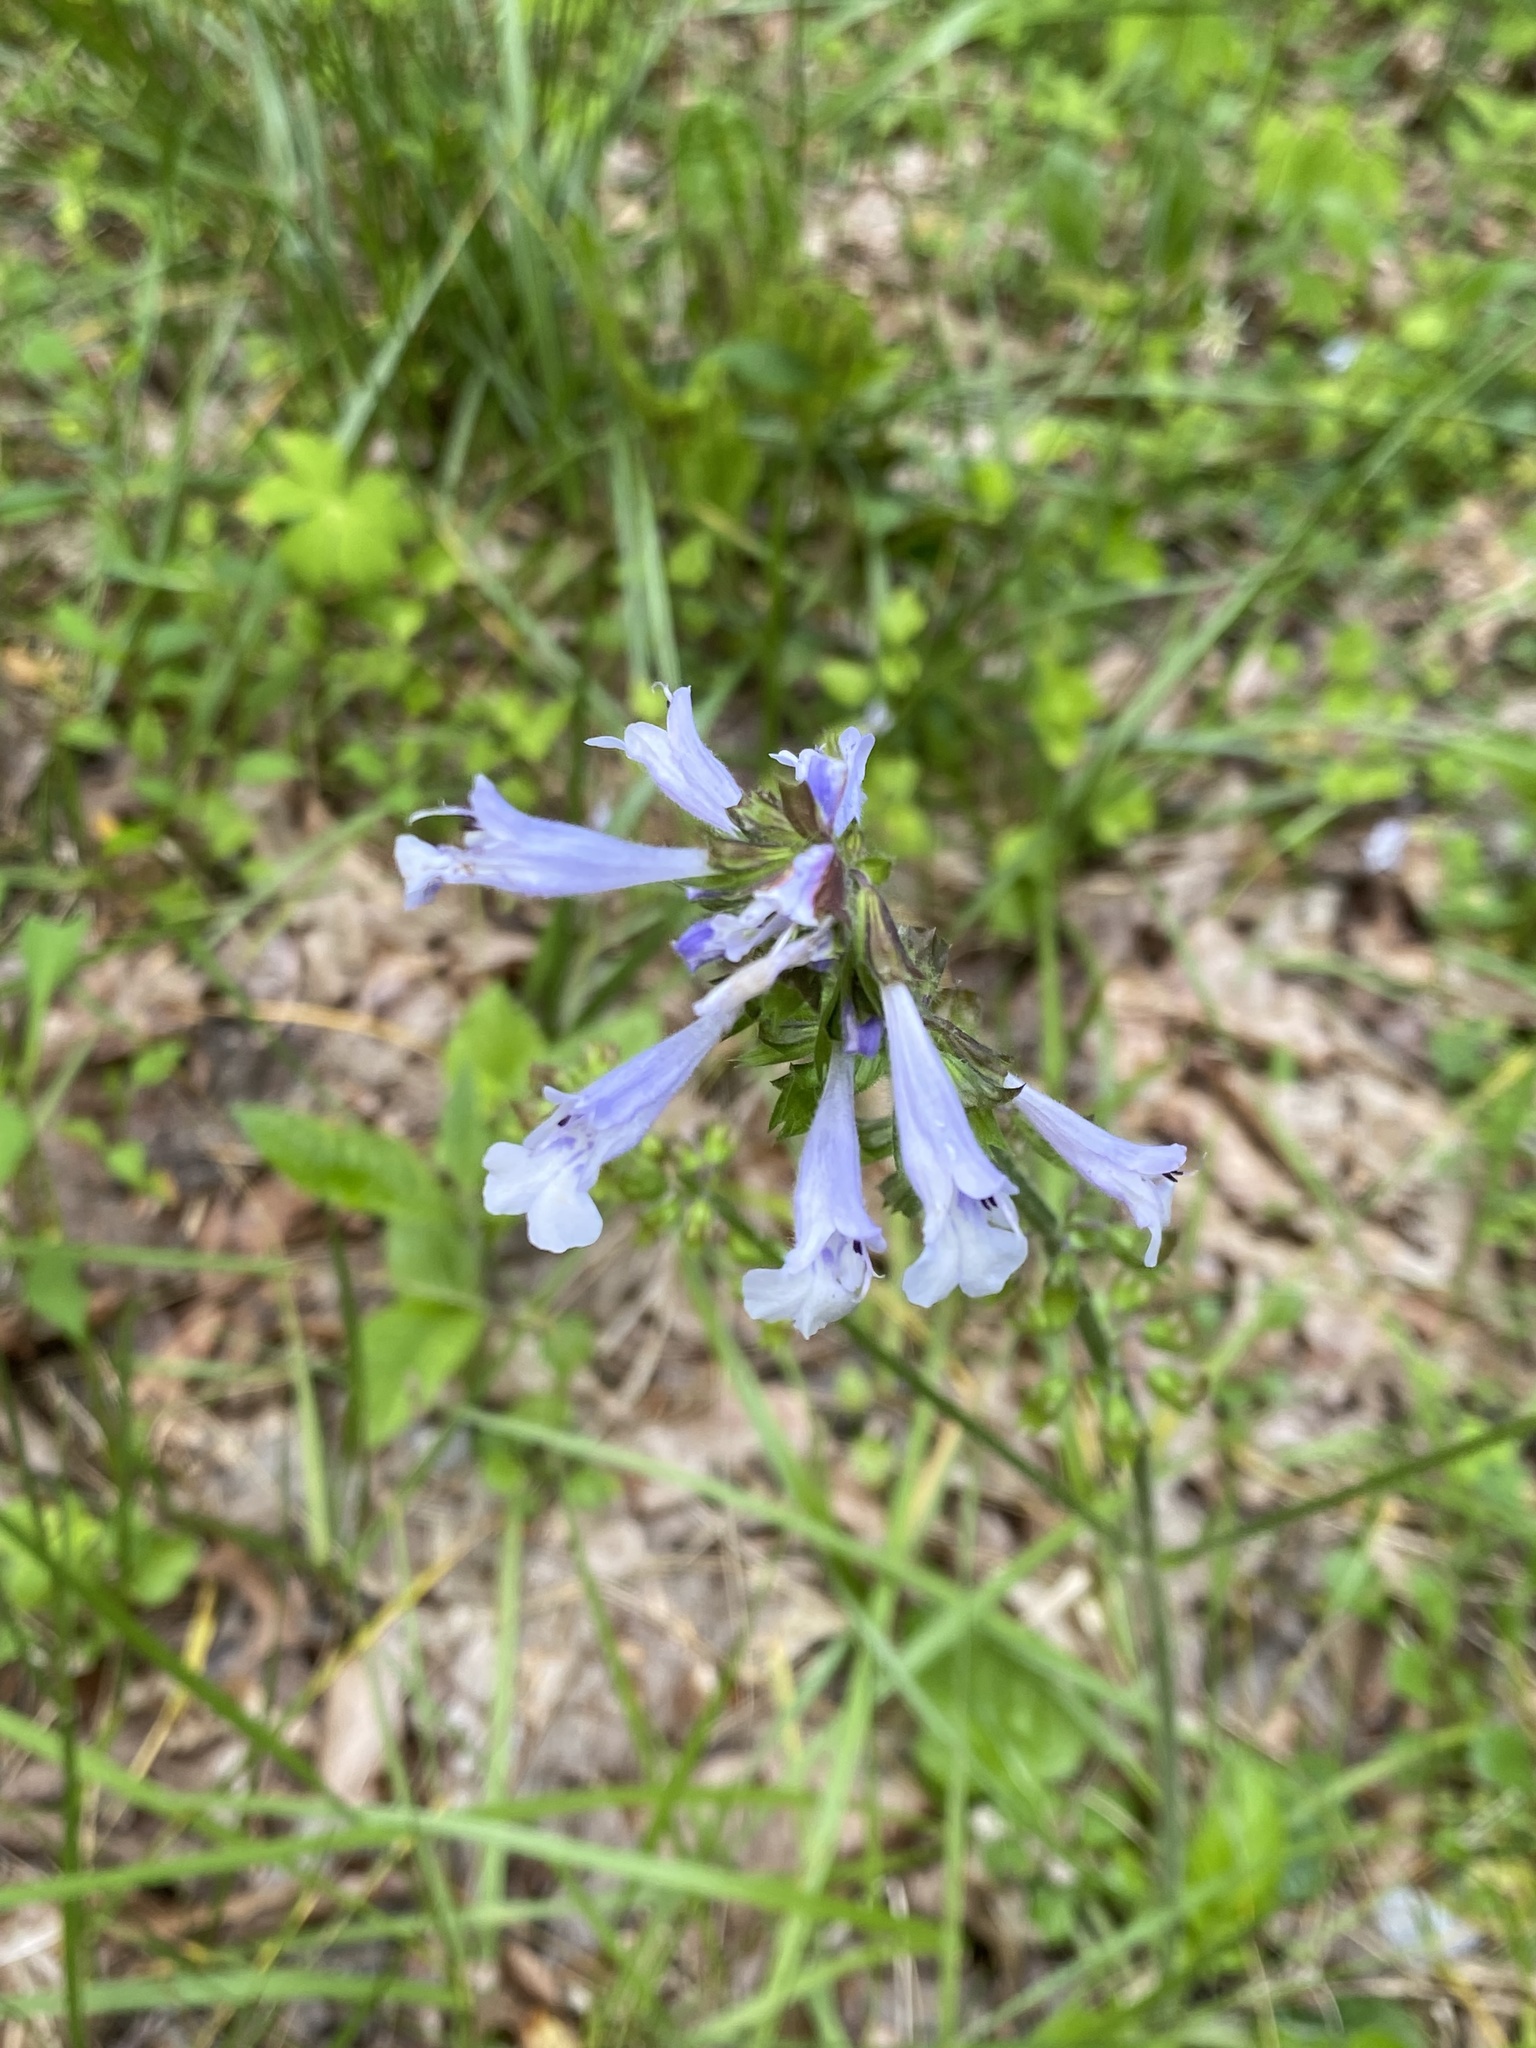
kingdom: Plantae
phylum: Tracheophyta
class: Magnoliopsida
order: Lamiales
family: Lamiaceae
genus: Salvia
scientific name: Salvia lyrata
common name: Cancerweed
